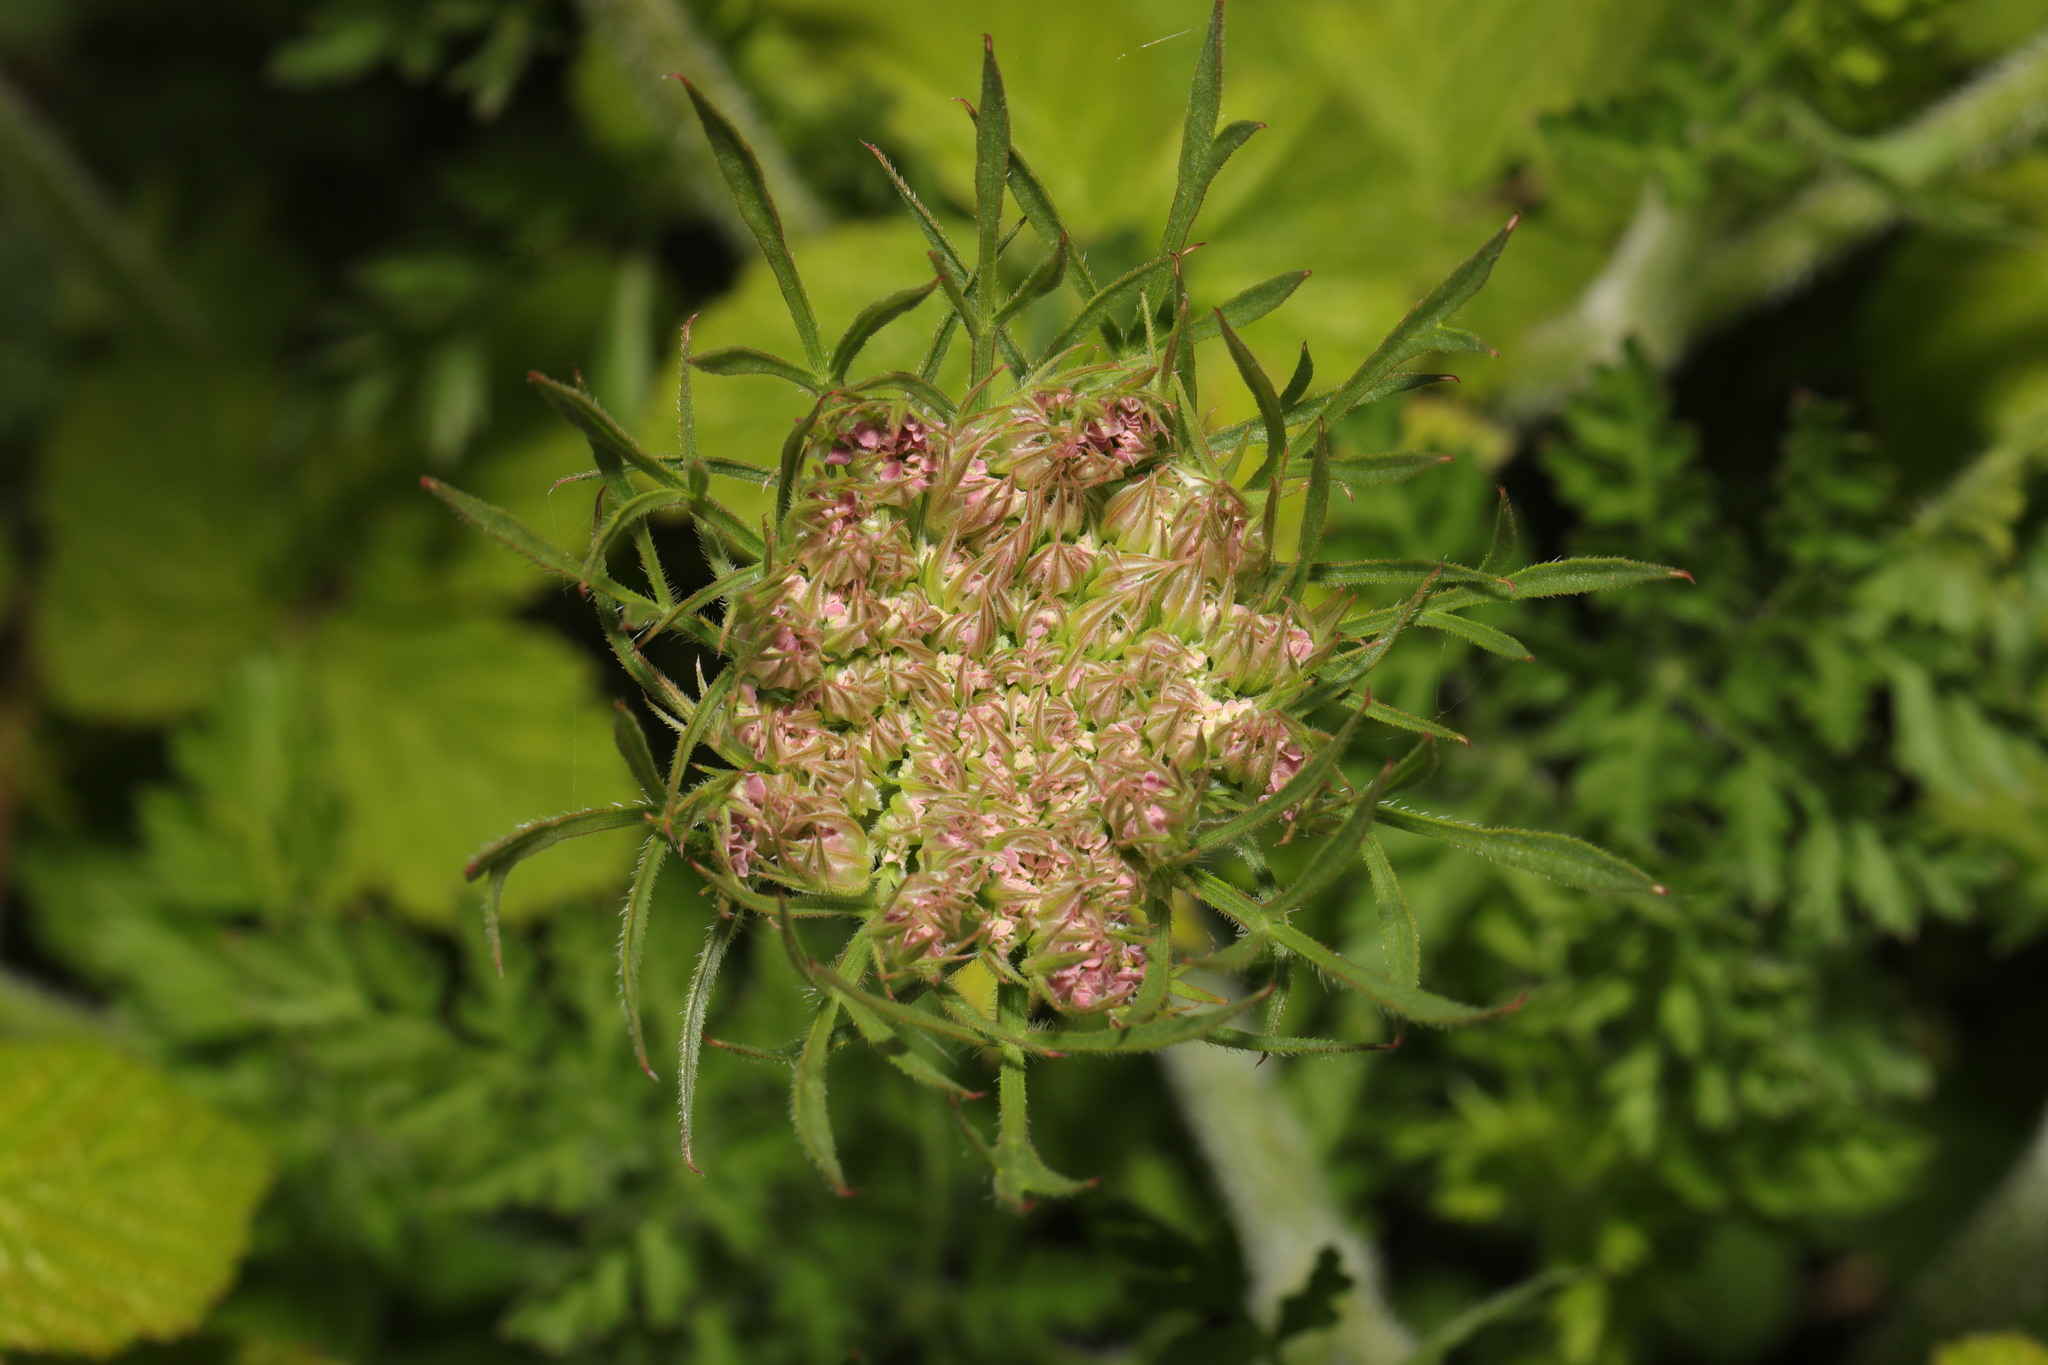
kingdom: Plantae
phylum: Tracheophyta
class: Magnoliopsida
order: Apiales
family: Apiaceae
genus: Daucus
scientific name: Daucus carota
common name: Wild carrot
